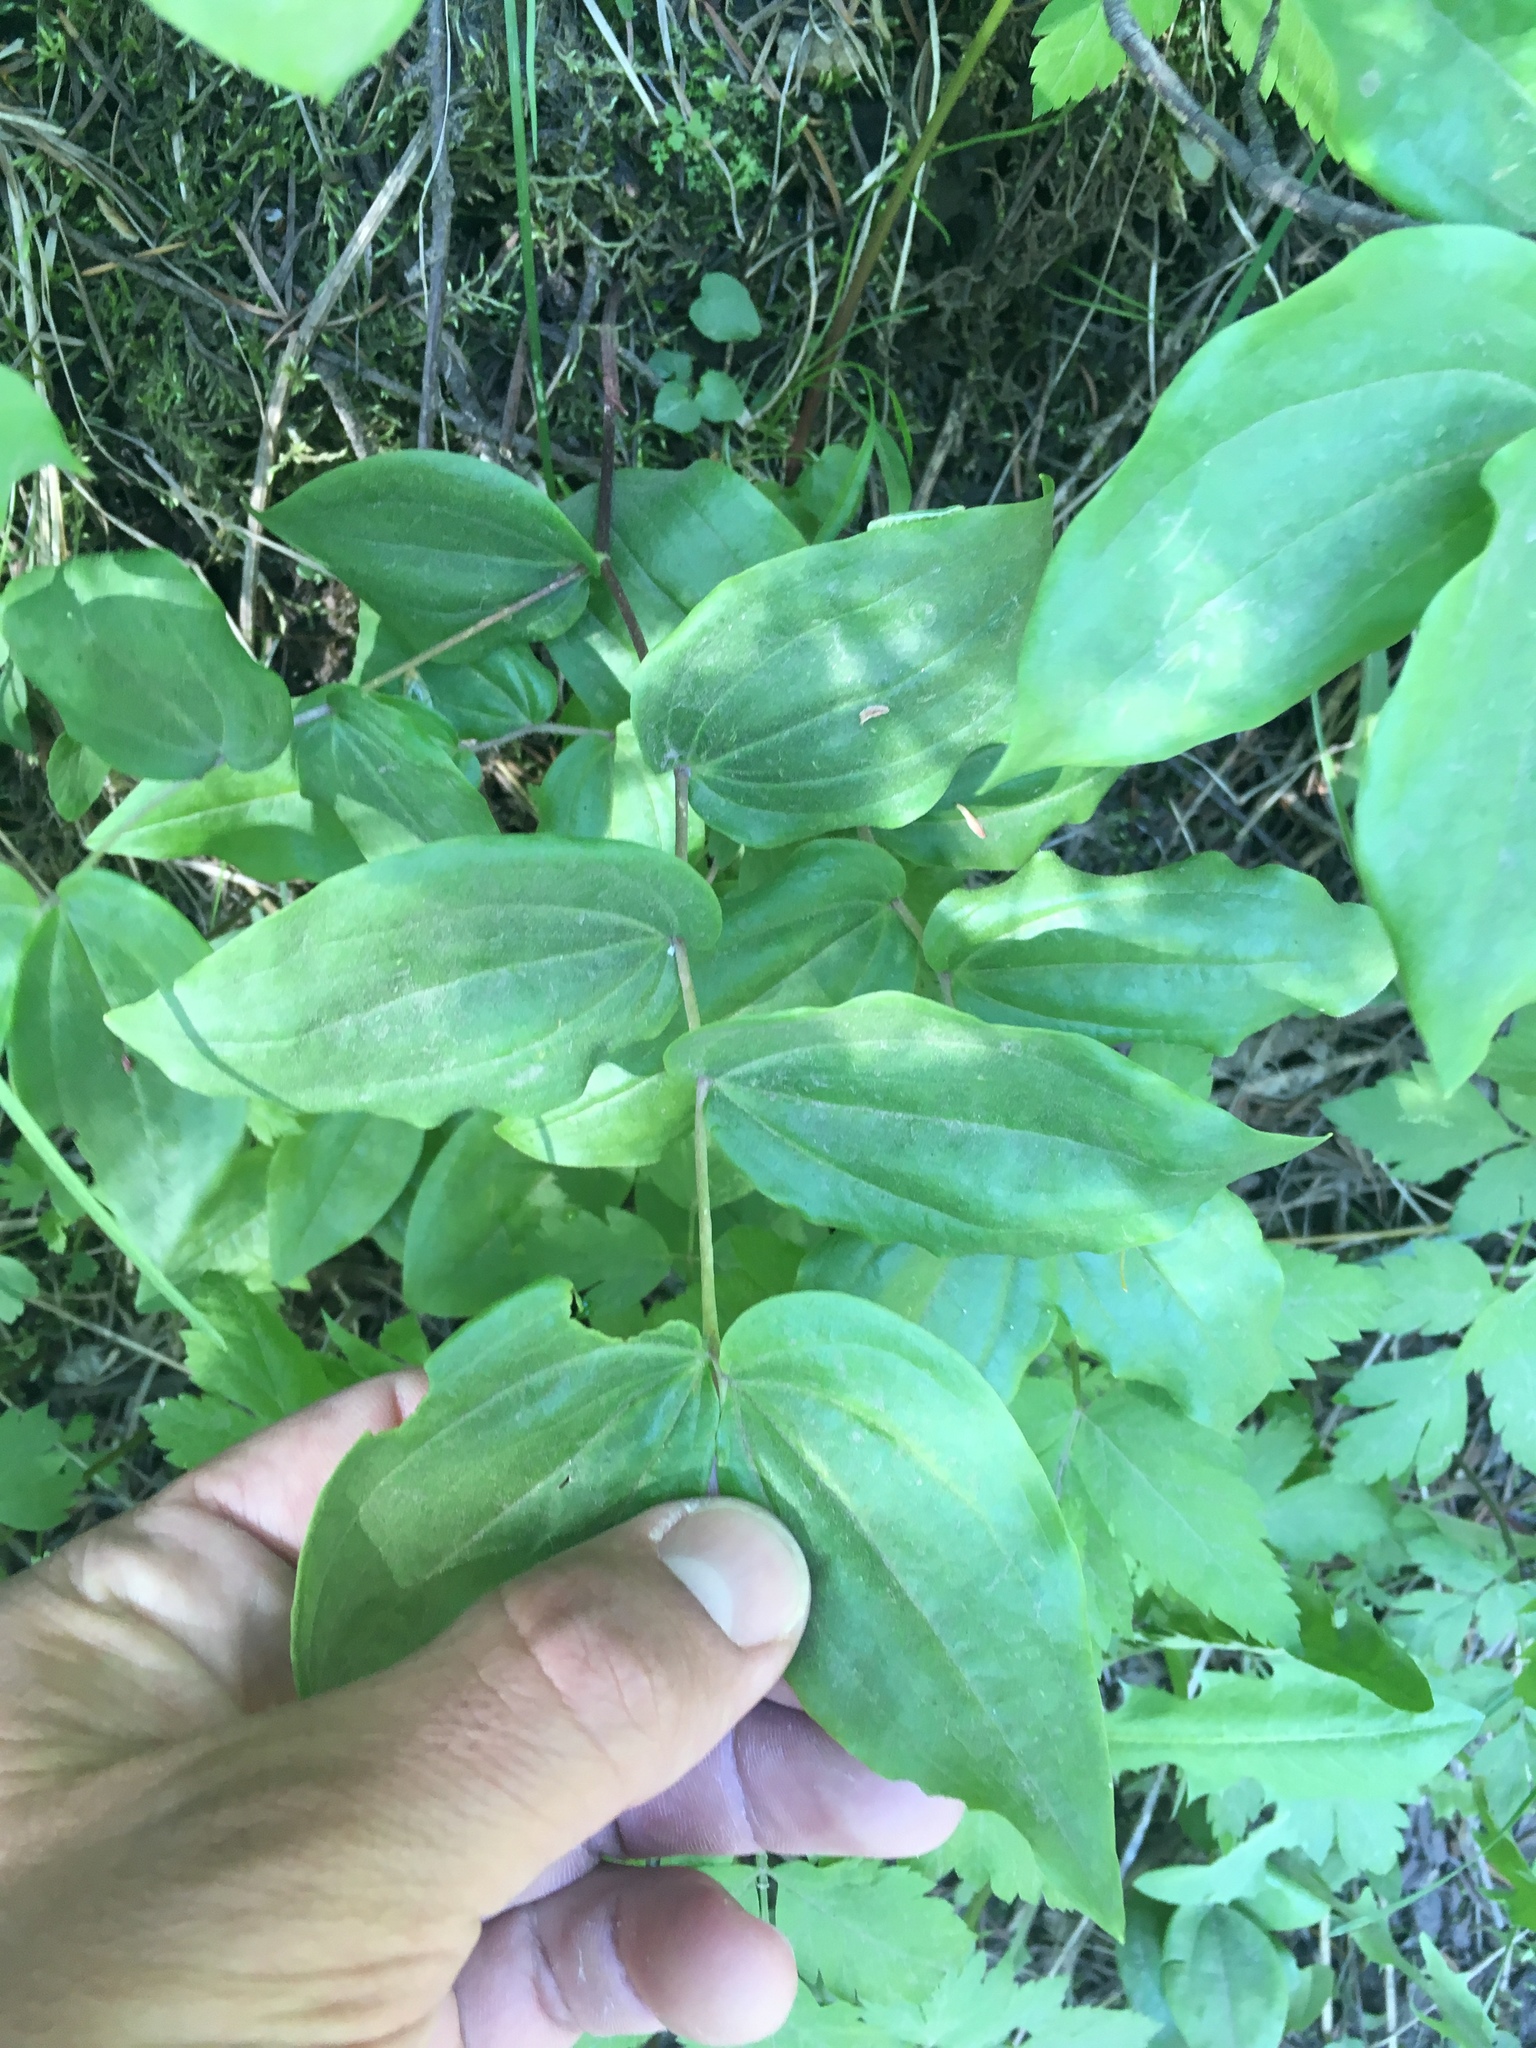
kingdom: Plantae
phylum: Tracheophyta
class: Liliopsida
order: Liliales
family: Liliaceae
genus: Prosartes
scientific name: Prosartes trachycarpa
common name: Rough-fruit fairy-bells
